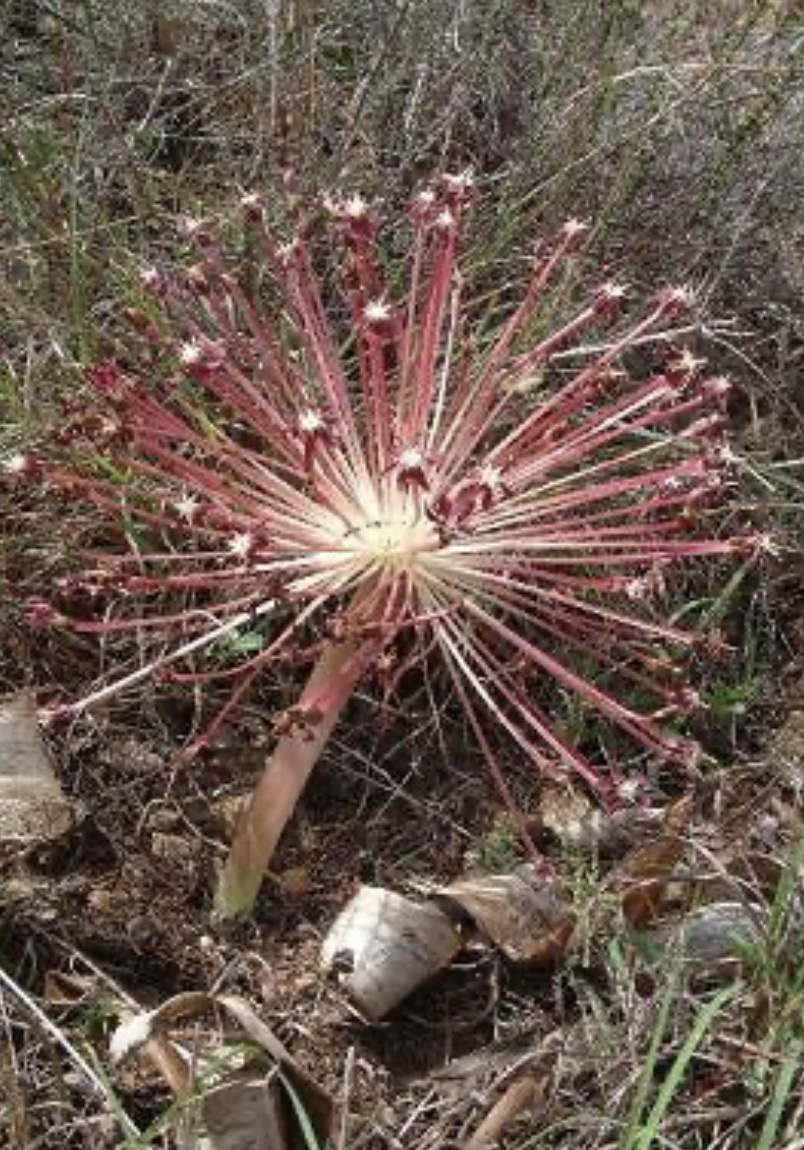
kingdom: Plantae
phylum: Tracheophyta
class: Liliopsida
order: Asparagales
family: Amaryllidaceae
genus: Crossyne
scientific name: Crossyne guttata
